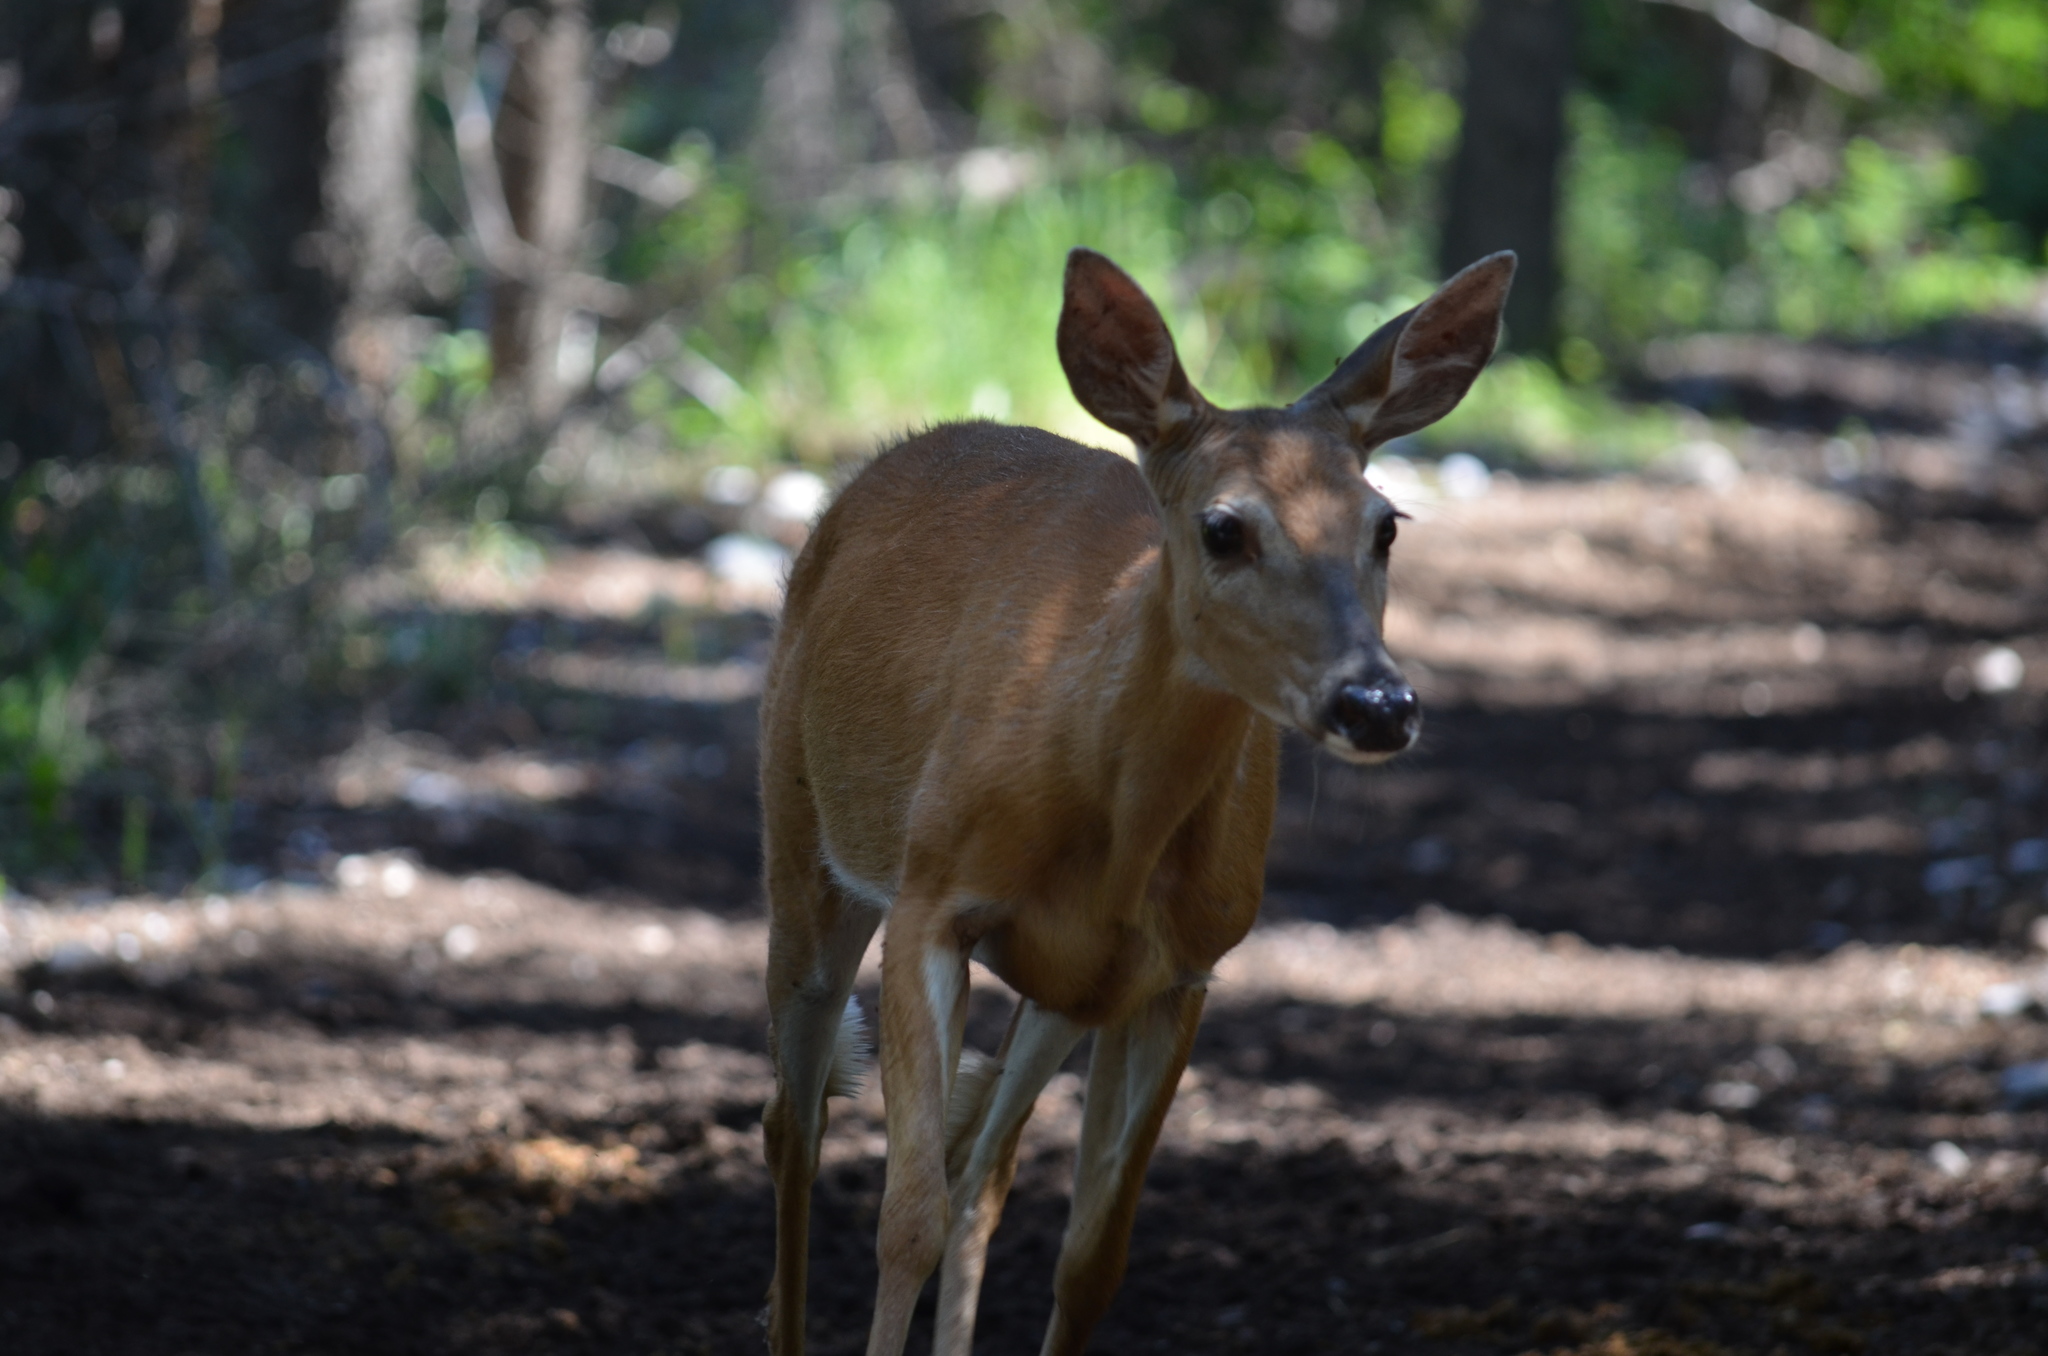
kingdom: Animalia
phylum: Chordata
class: Mammalia
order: Artiodactyla
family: Cervidae
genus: Odocoileus
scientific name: Odocoileus virginianus
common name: White-tailed deer
